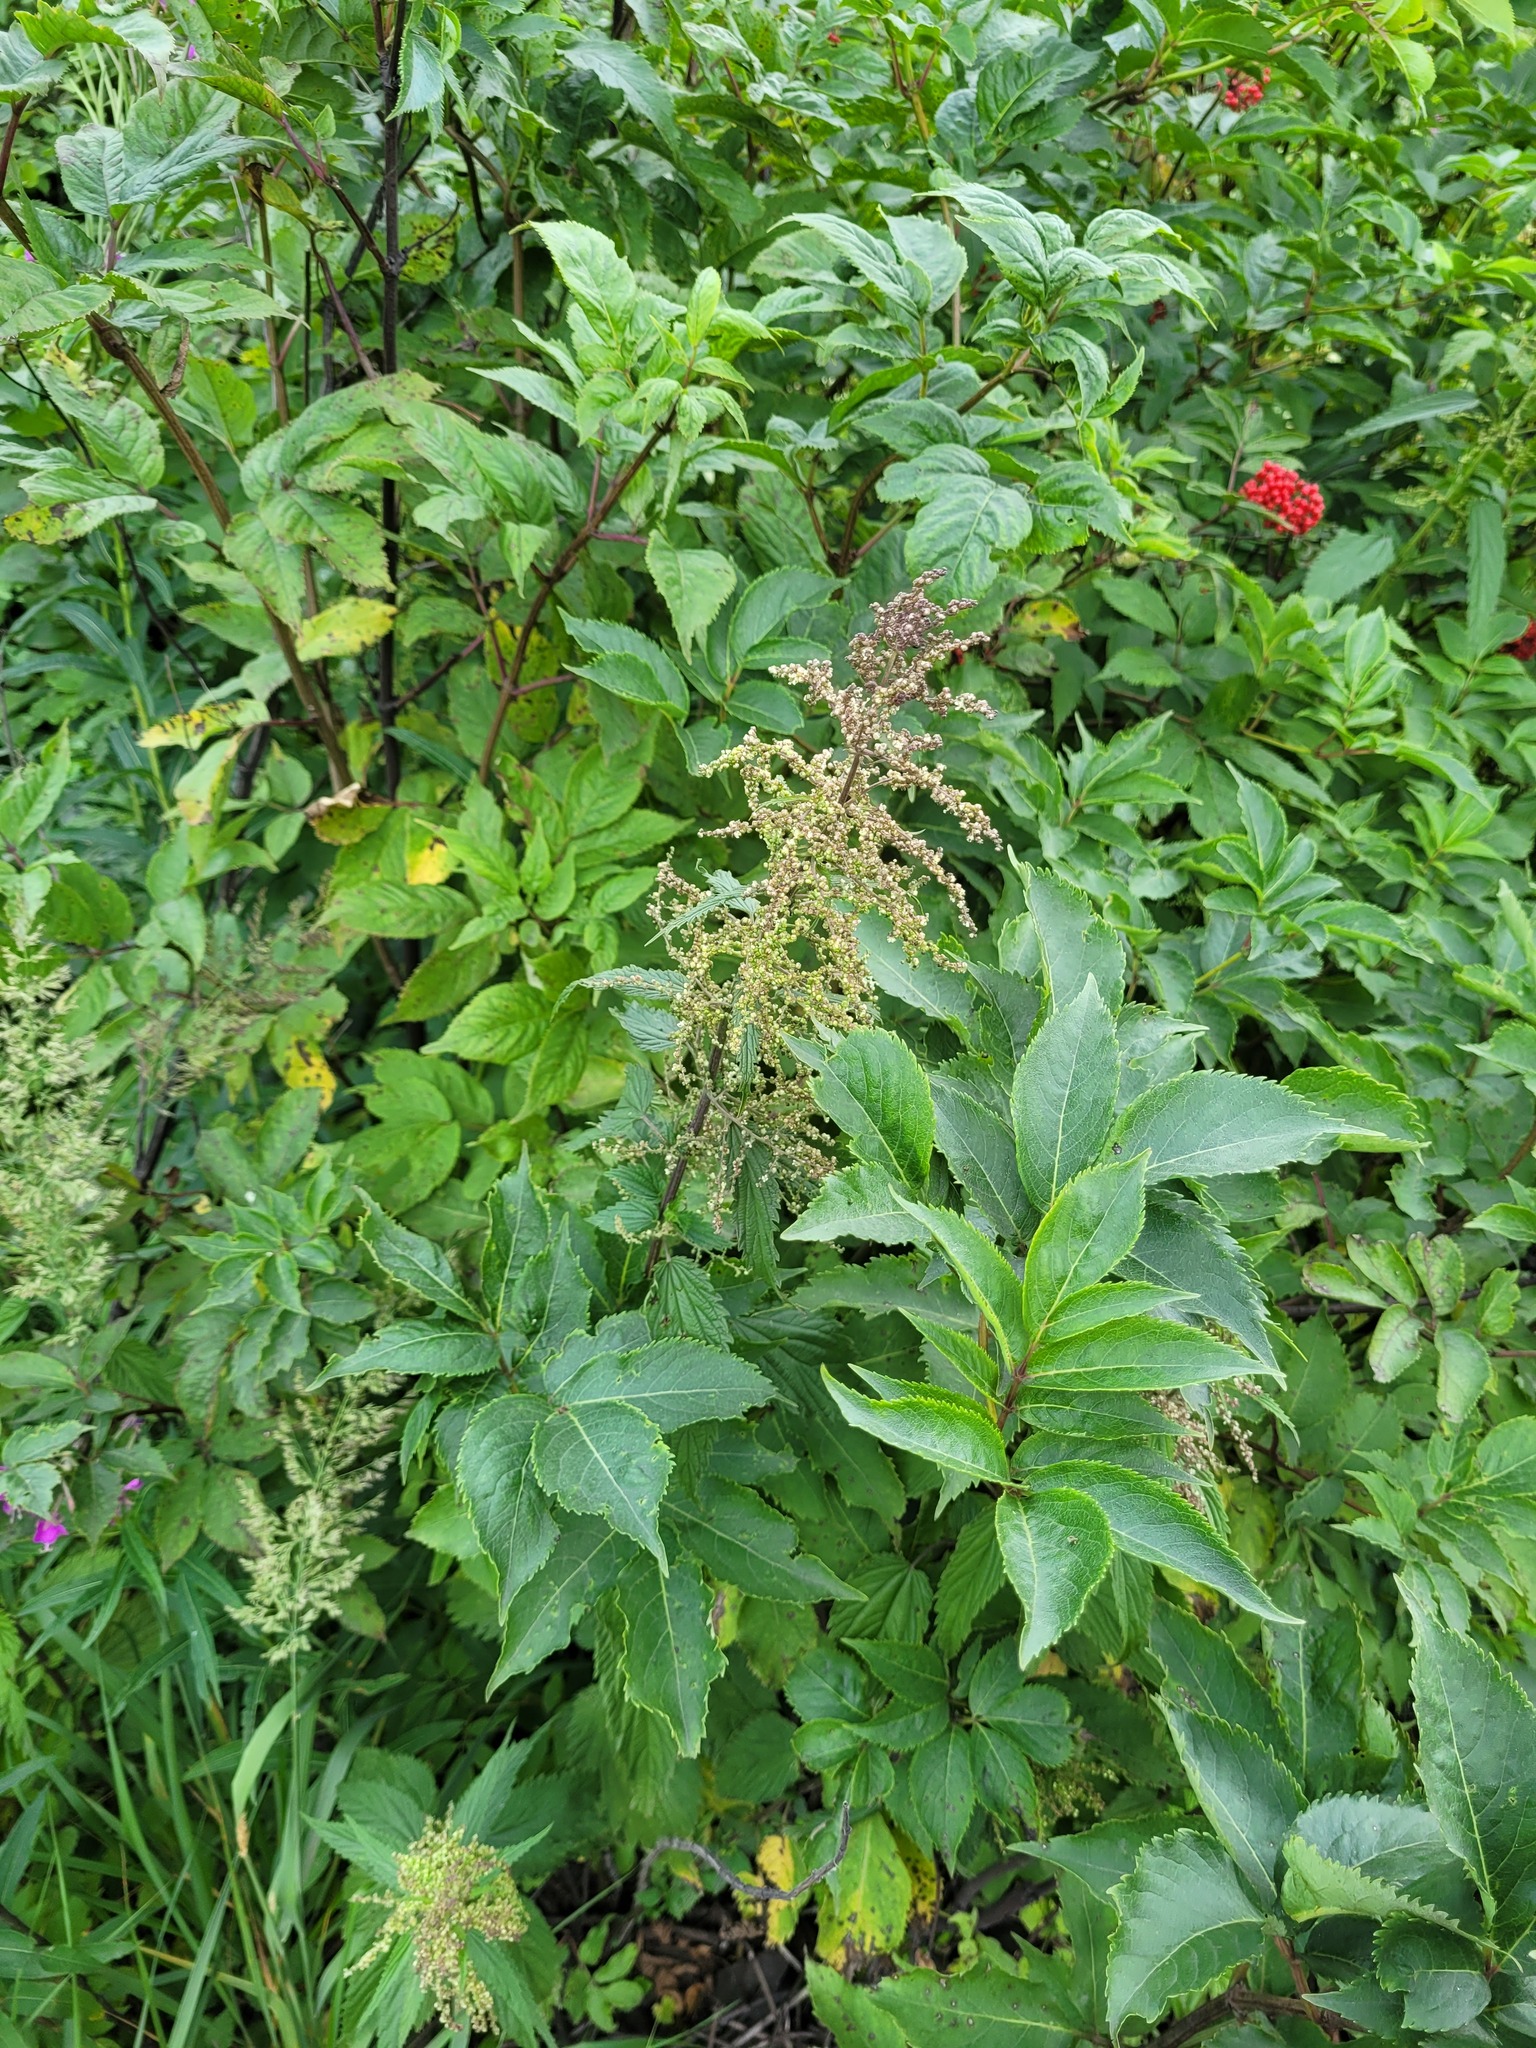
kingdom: Plantae
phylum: Tracheophyta
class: Magnoliopsida
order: Dipsacales
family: Viburnaceae
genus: Sambucus
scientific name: Sambucus racemosa
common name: Red-berried elder
